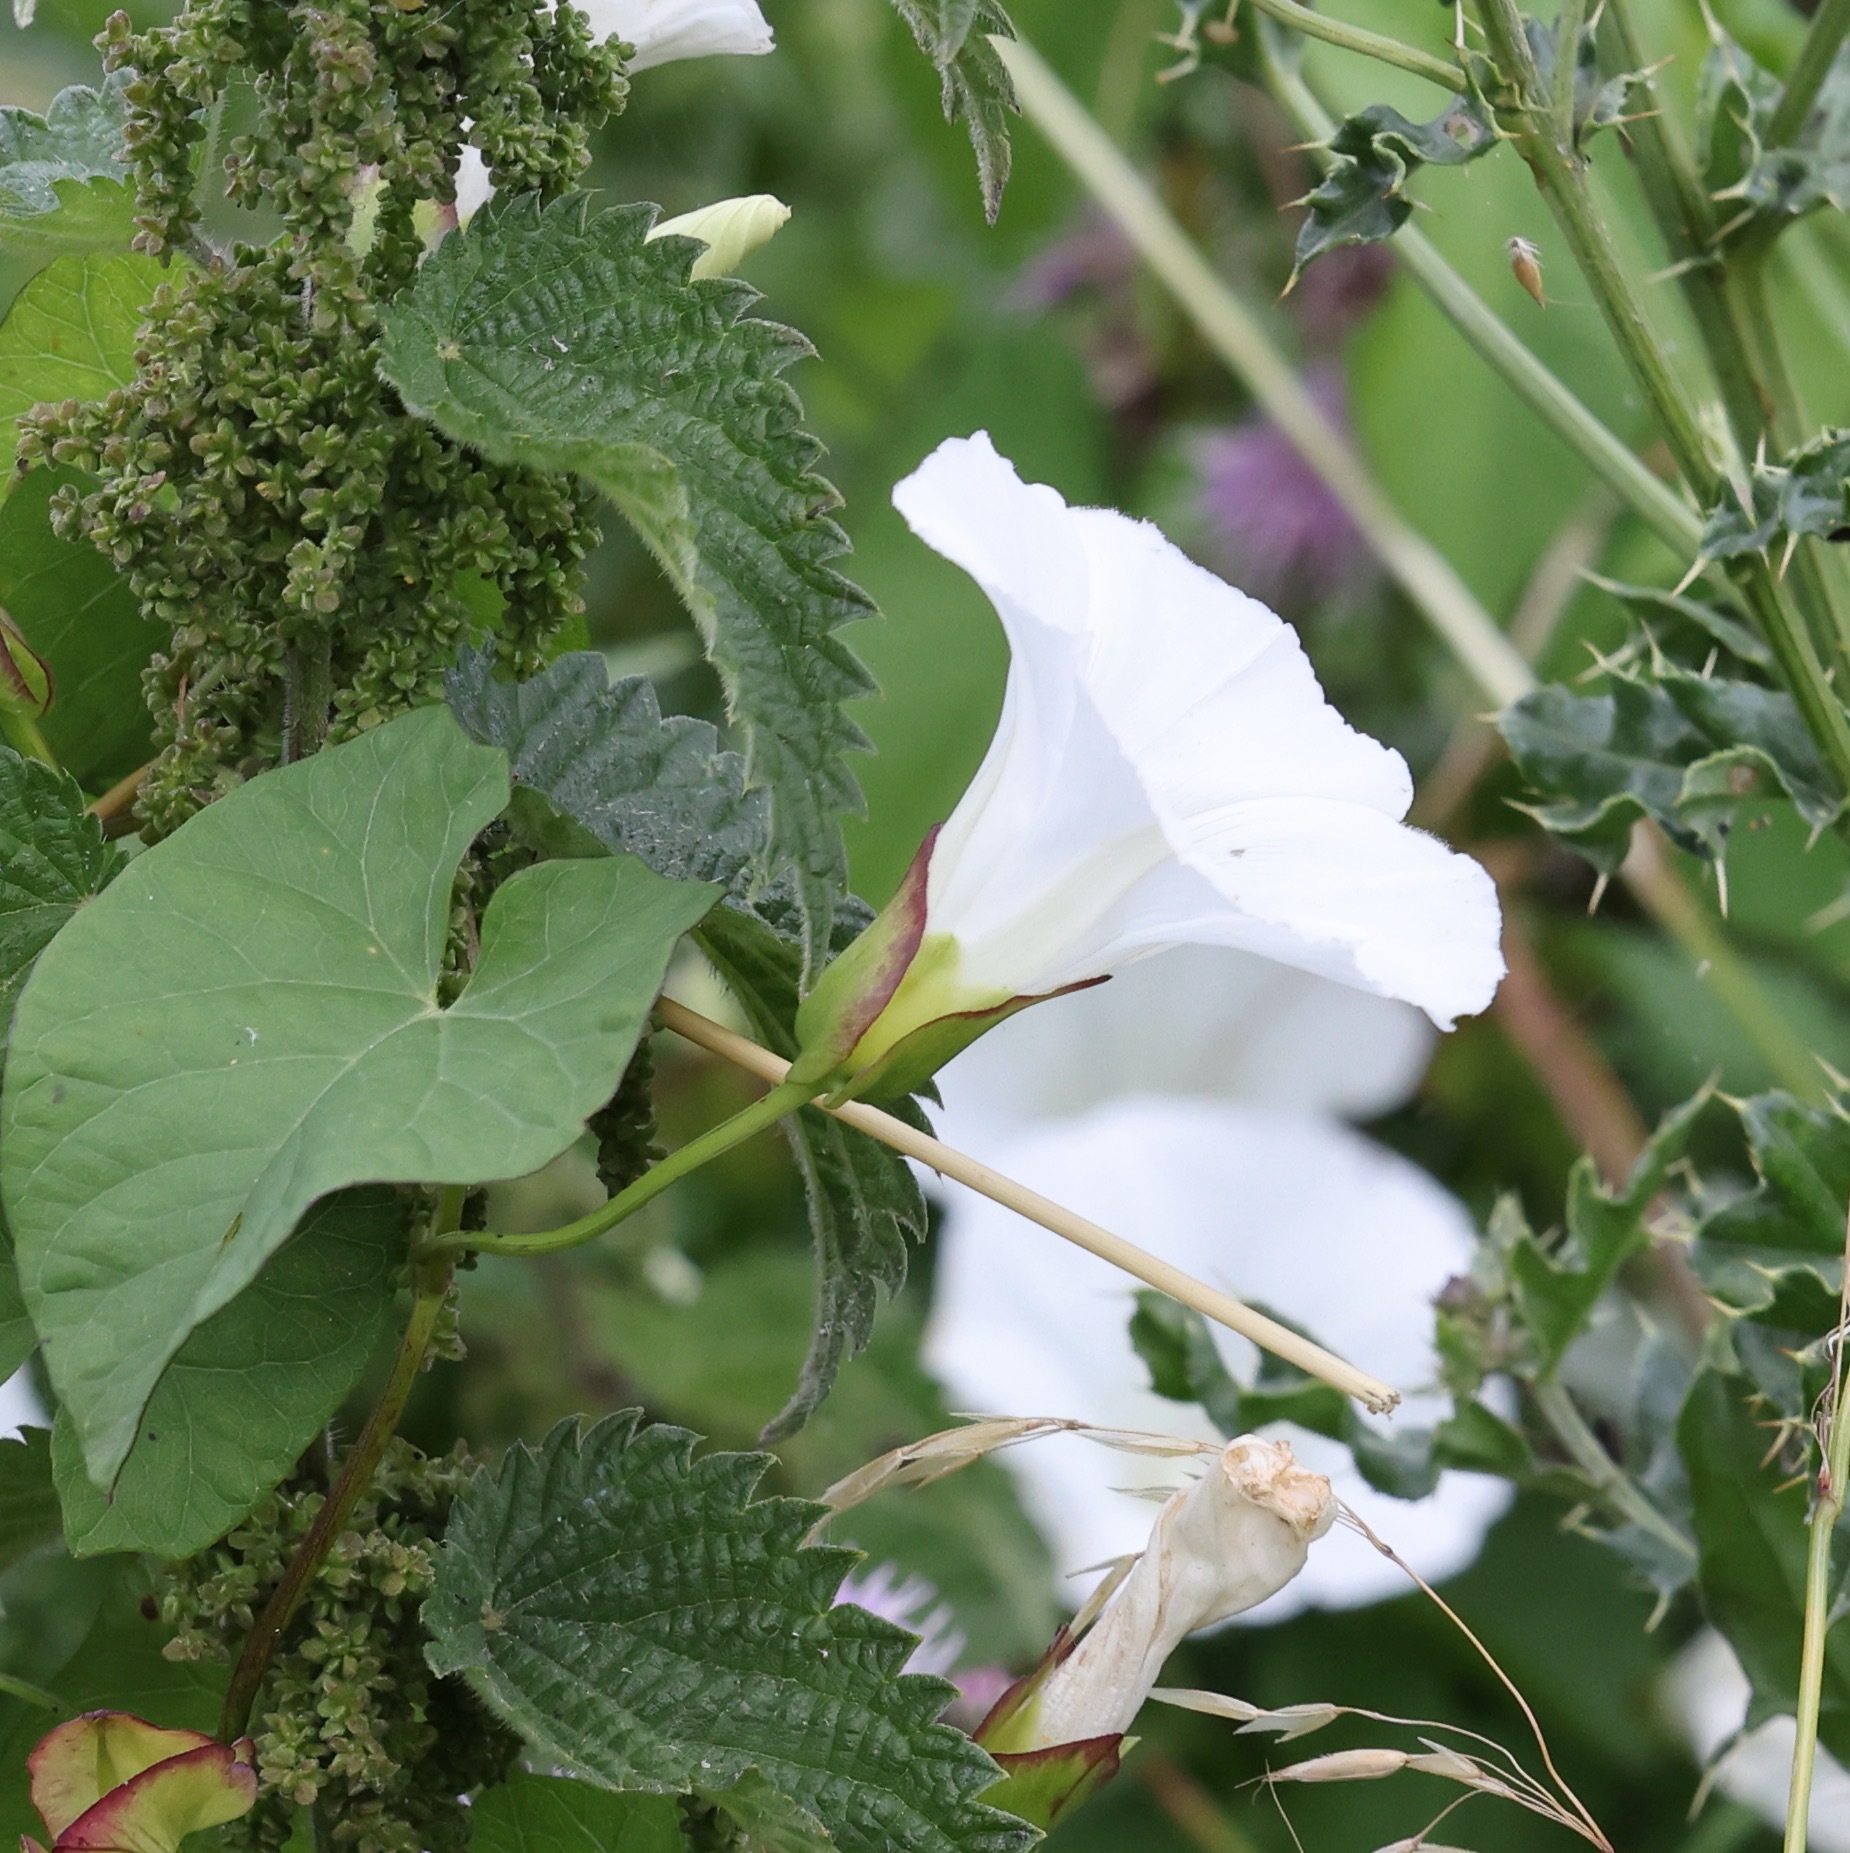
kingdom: Plantae
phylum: Tracheophyta
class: Magnoliopsida
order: Solanales
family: Convolvulaceae
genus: Calystegia
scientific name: Calystegia sepium
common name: Hedge bindweed
